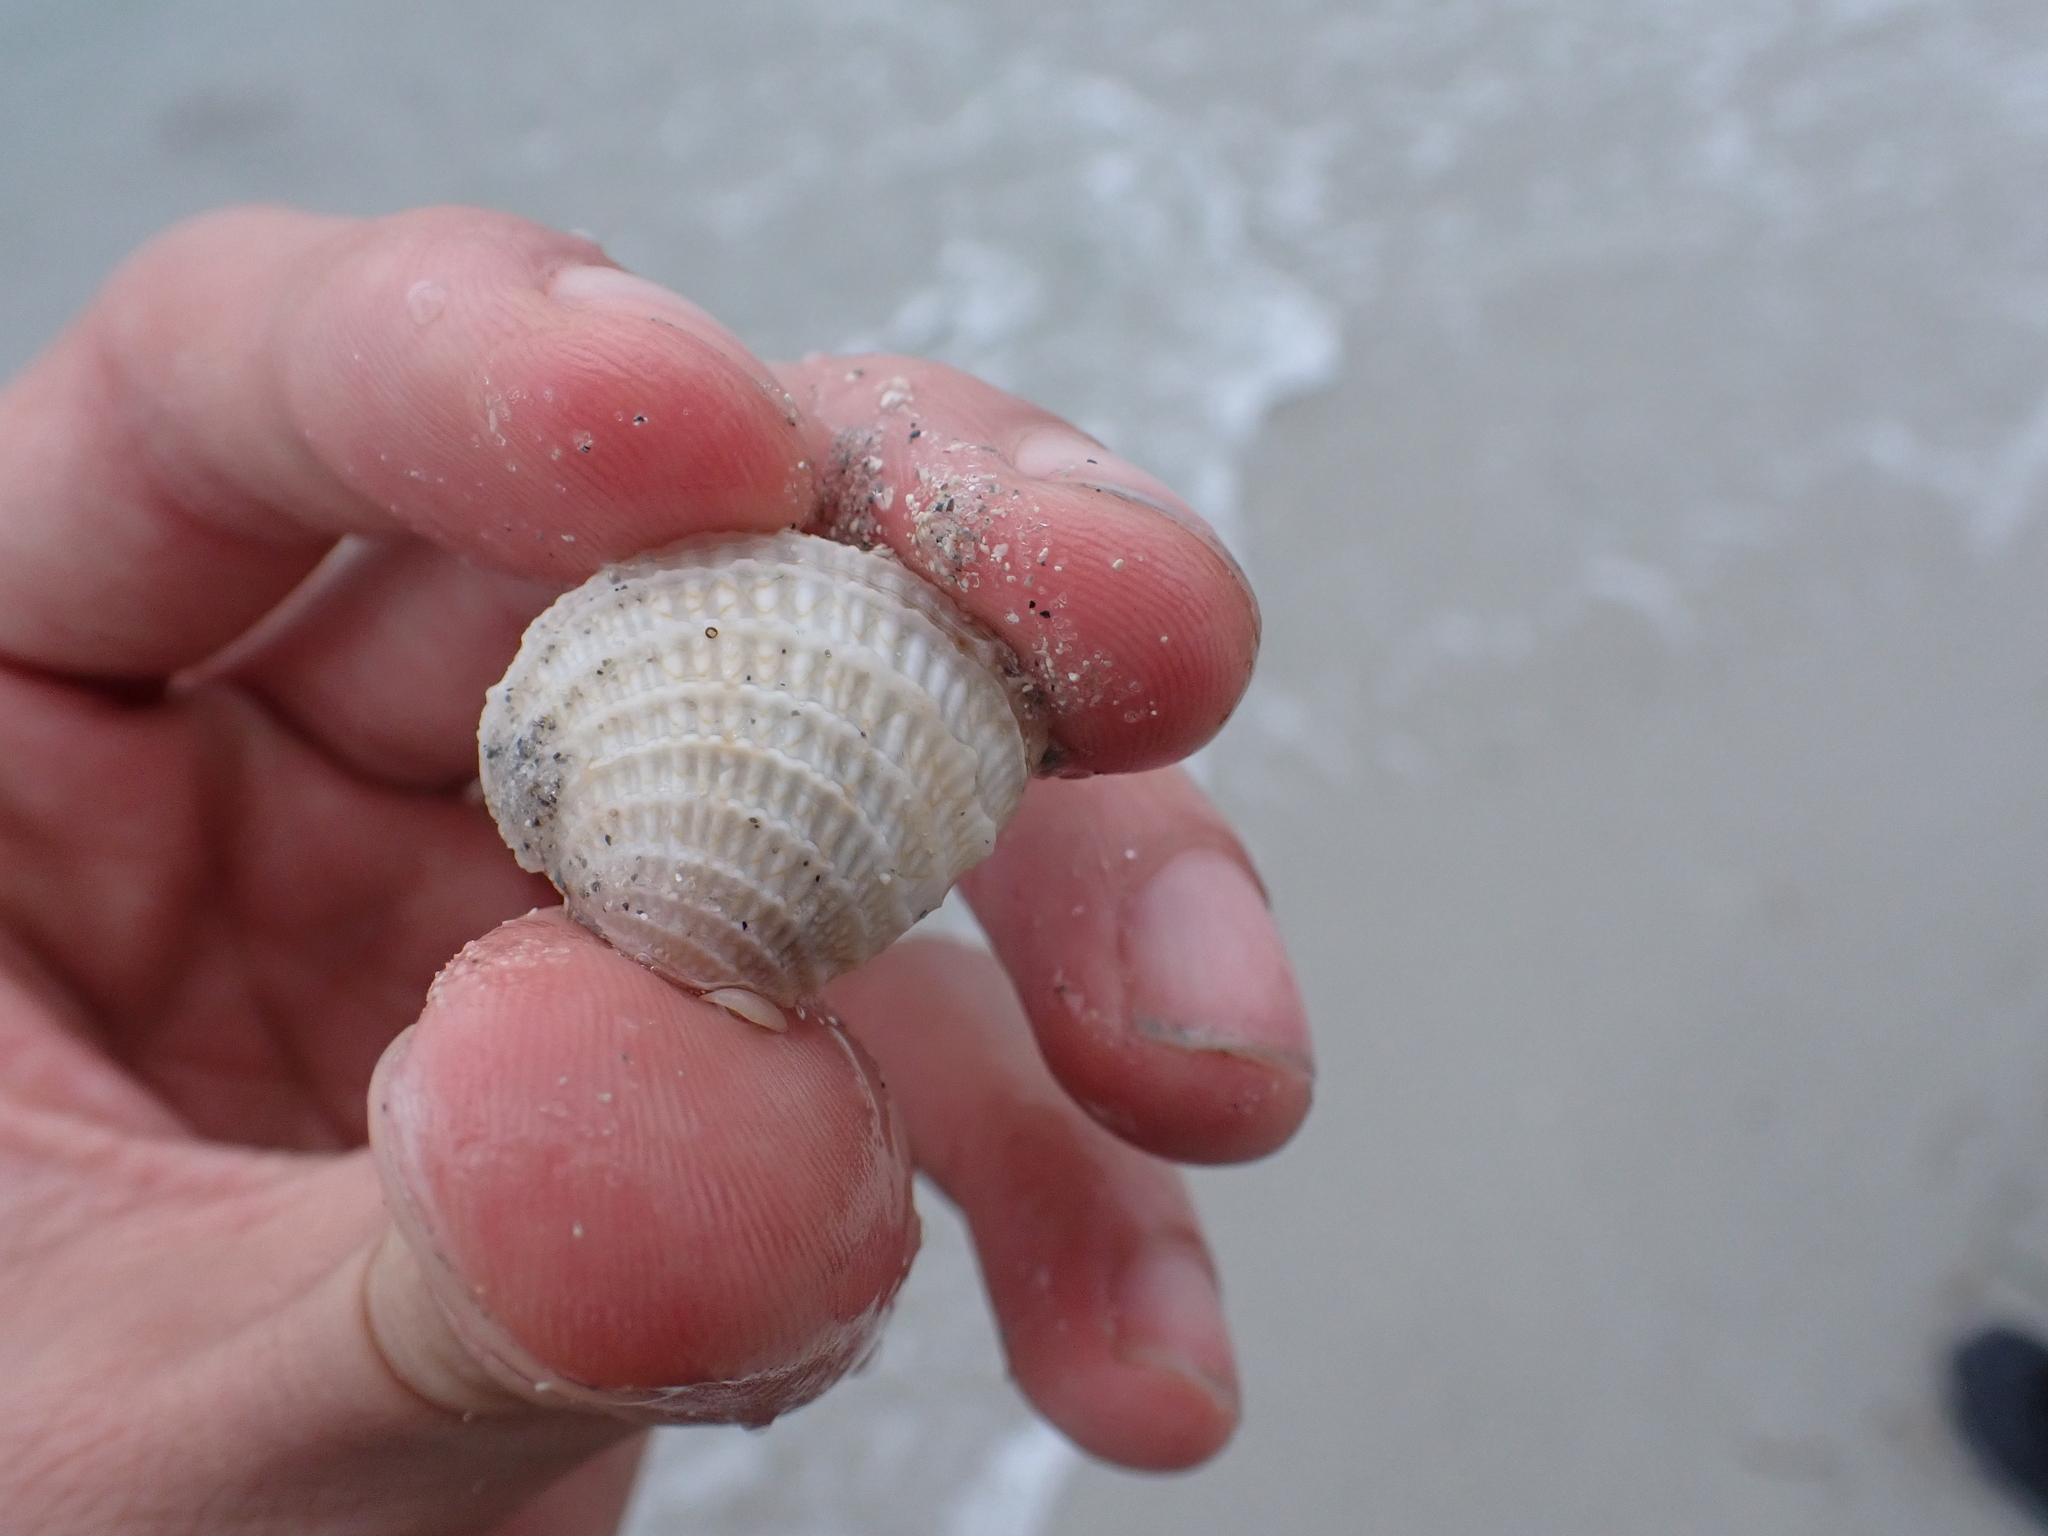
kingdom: Animalia
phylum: Mollusca
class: Bivalvia
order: Venerida
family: Veneridae
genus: Chione
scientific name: Chione elevata
